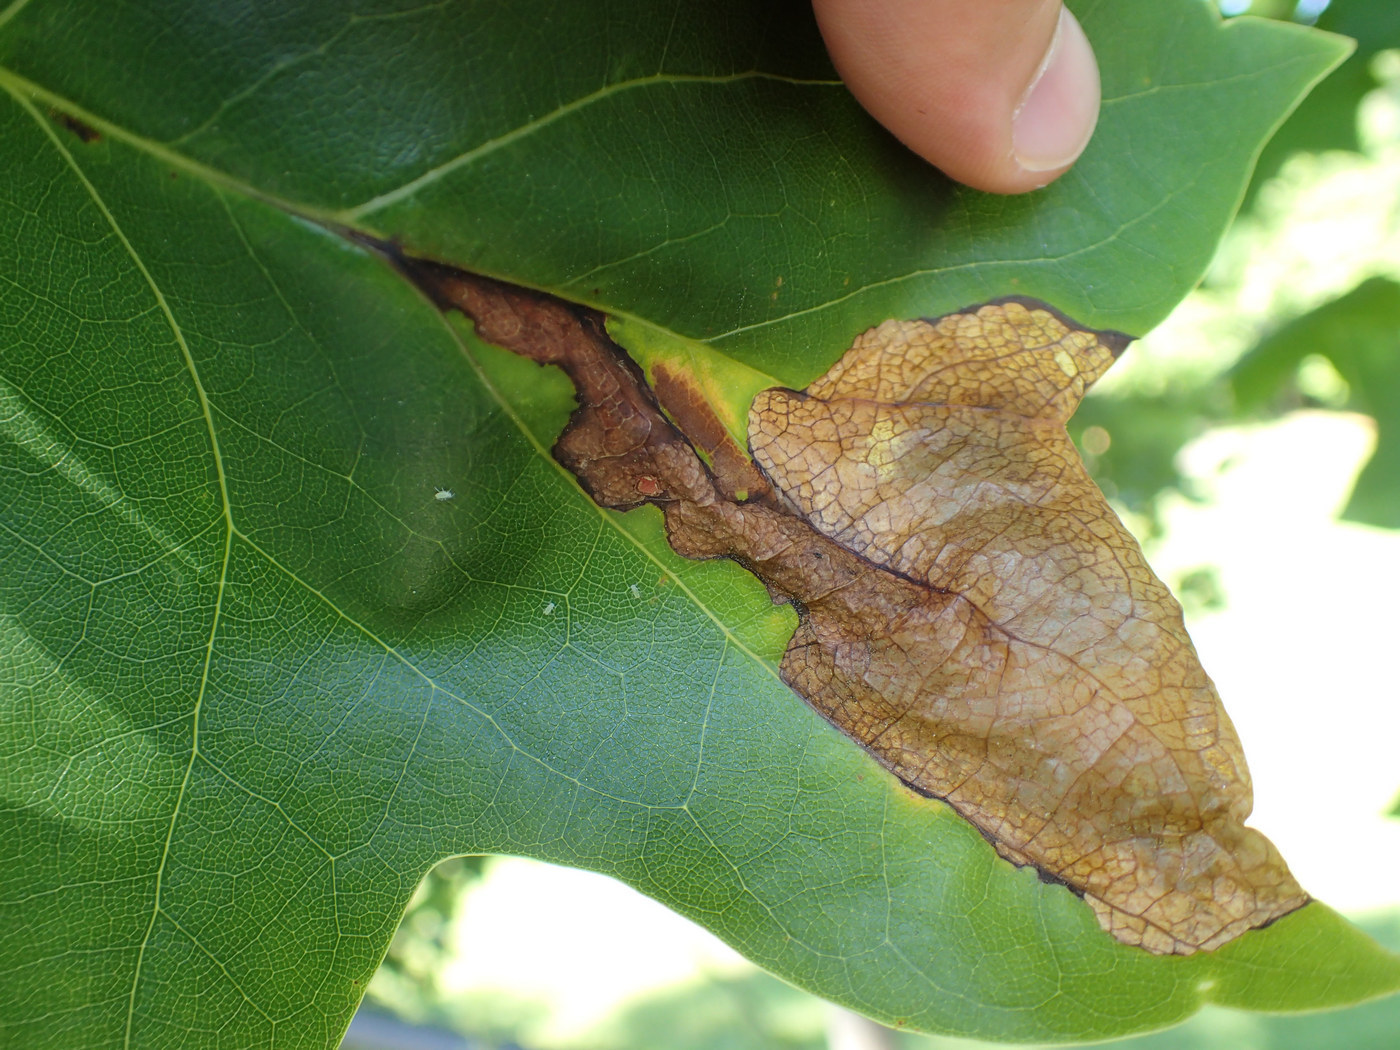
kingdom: Animalia
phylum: Arthropoda
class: Insecta
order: Coleoptera
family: Curculionidae
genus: Odontopus
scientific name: Odontopus calceatus
